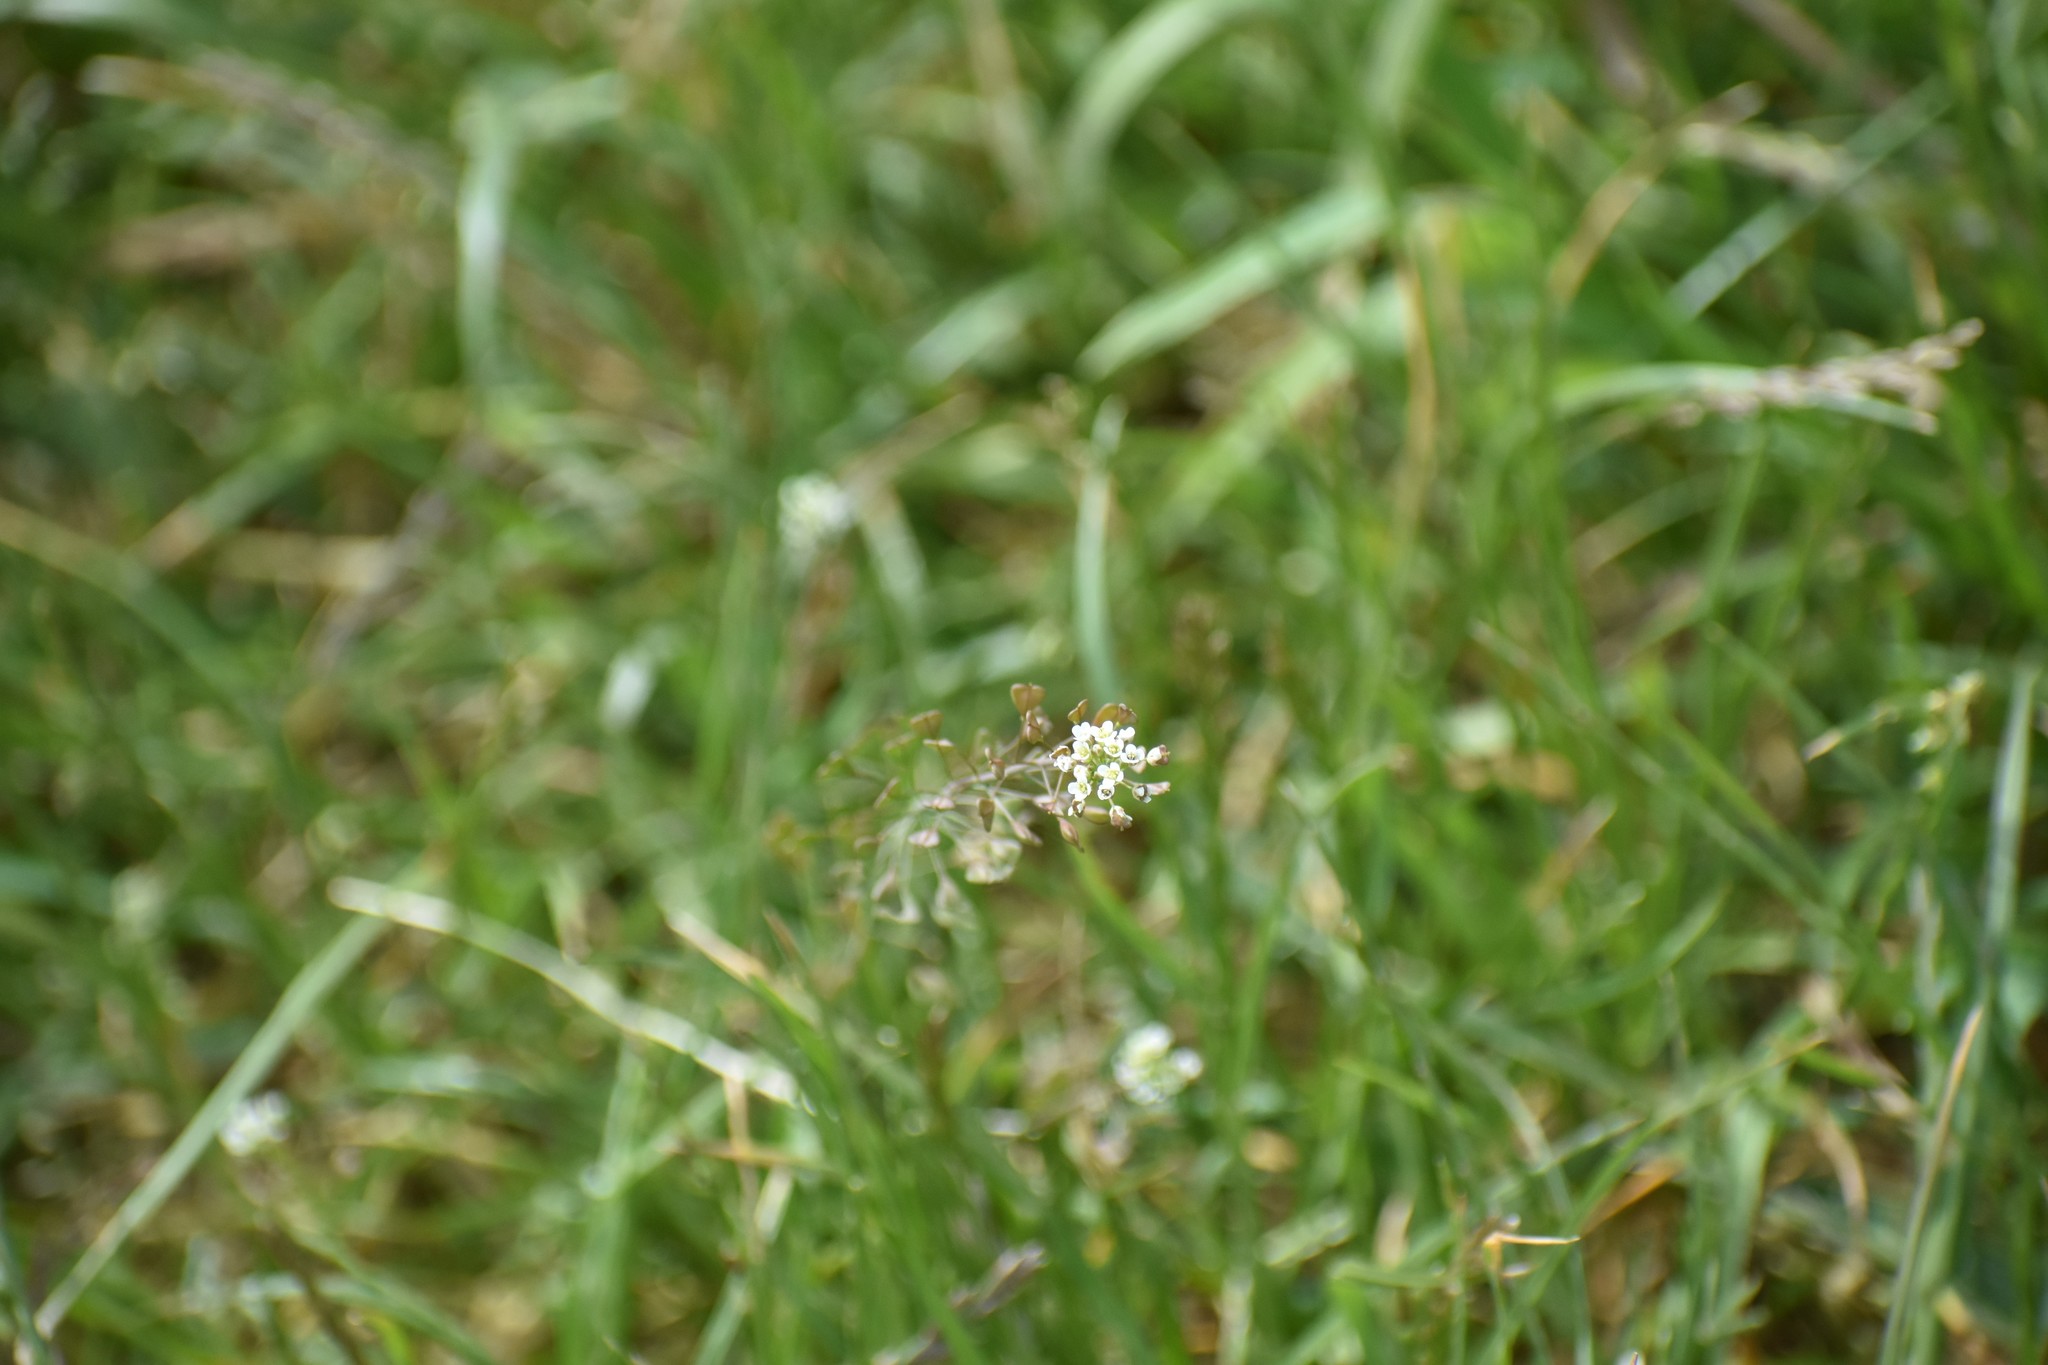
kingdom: Plantae
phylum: Tracheophyta
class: Magnoliopsida
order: Brassicales
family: Brassicaceae
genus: Capsella
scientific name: Capsella bursa-pastoris
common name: Shepherd's purse
